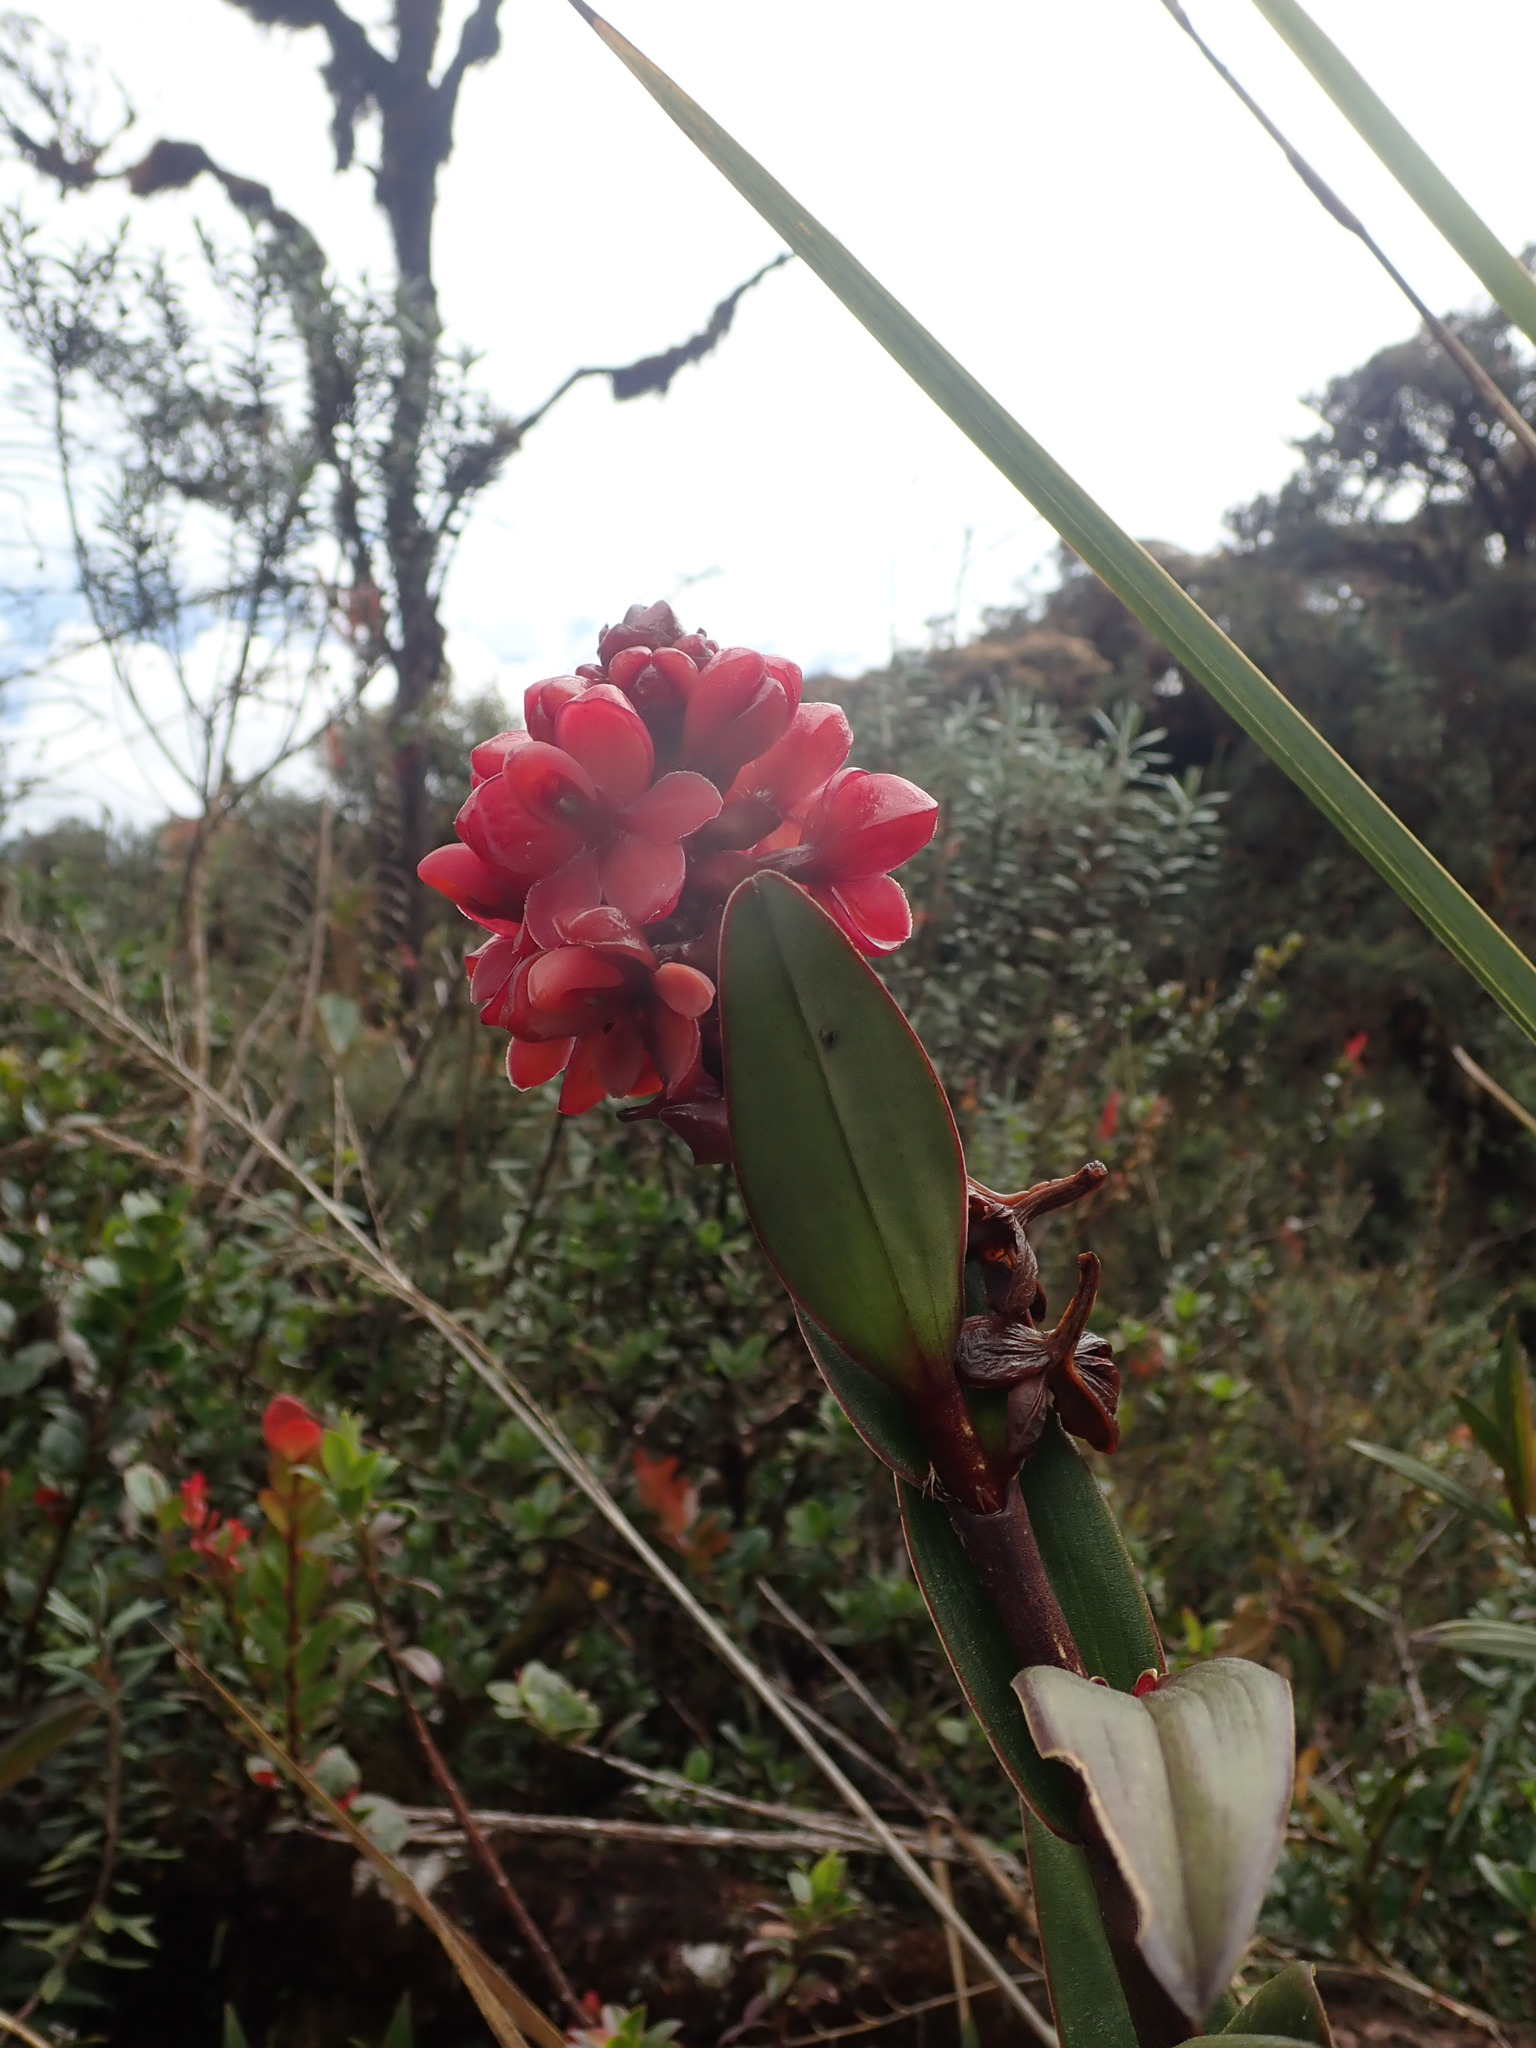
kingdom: Plantae
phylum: Tracheophyta
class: Liliopsida
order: Asparagales
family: Orchidaceae
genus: Epidendrum
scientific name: Epidendrum ariasii
